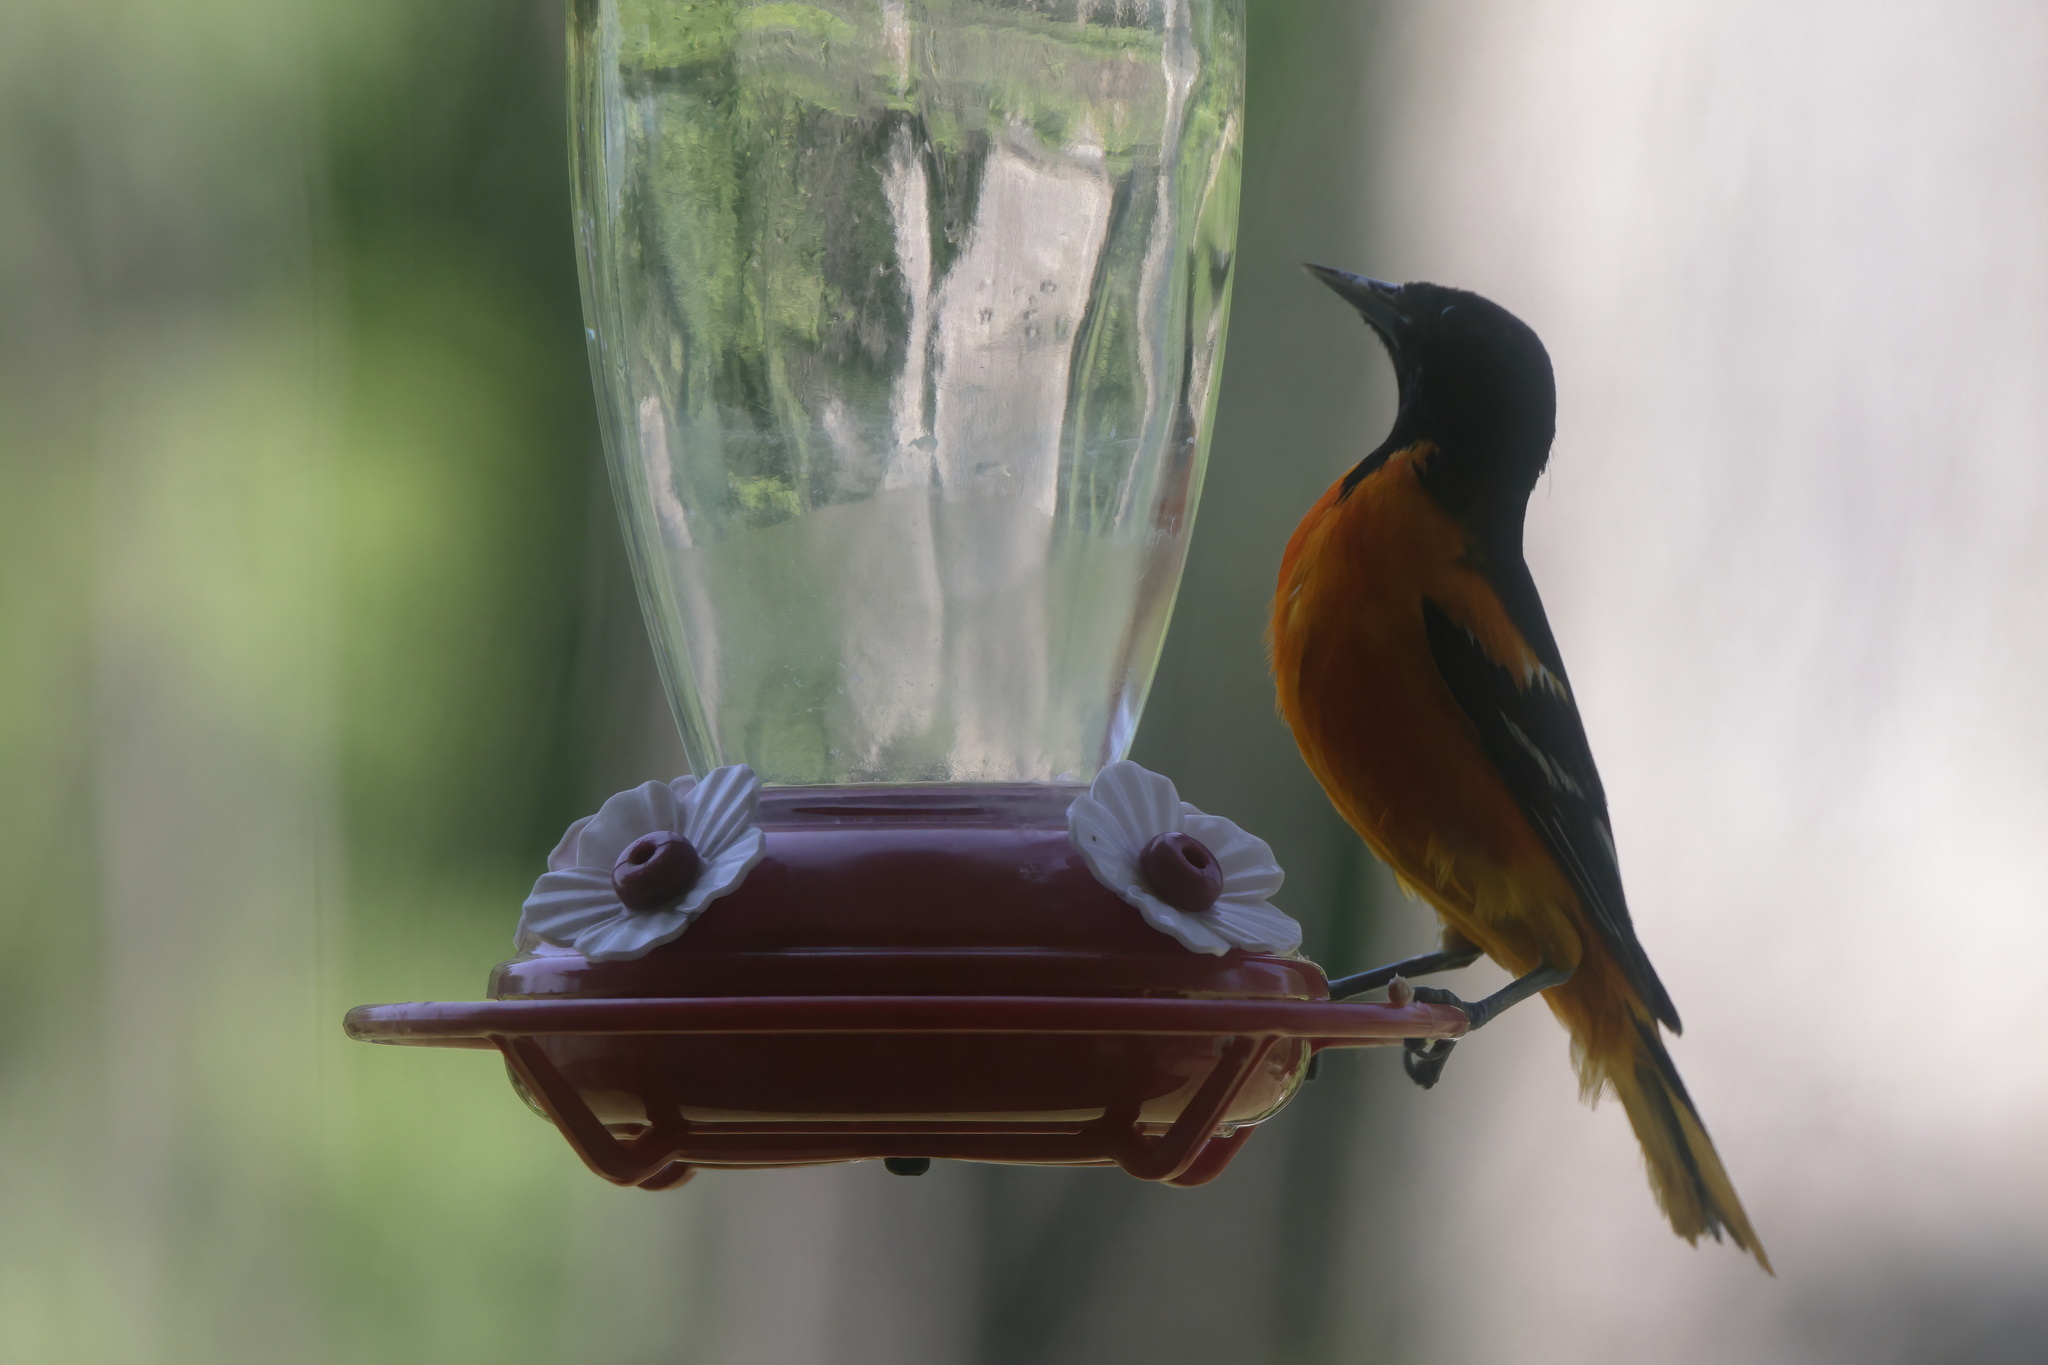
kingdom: Animalia
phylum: Chordata
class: Aves
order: Passeriformes
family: Icteridae
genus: Icterus
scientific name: Icterus galbula
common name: Baltimore oriole
